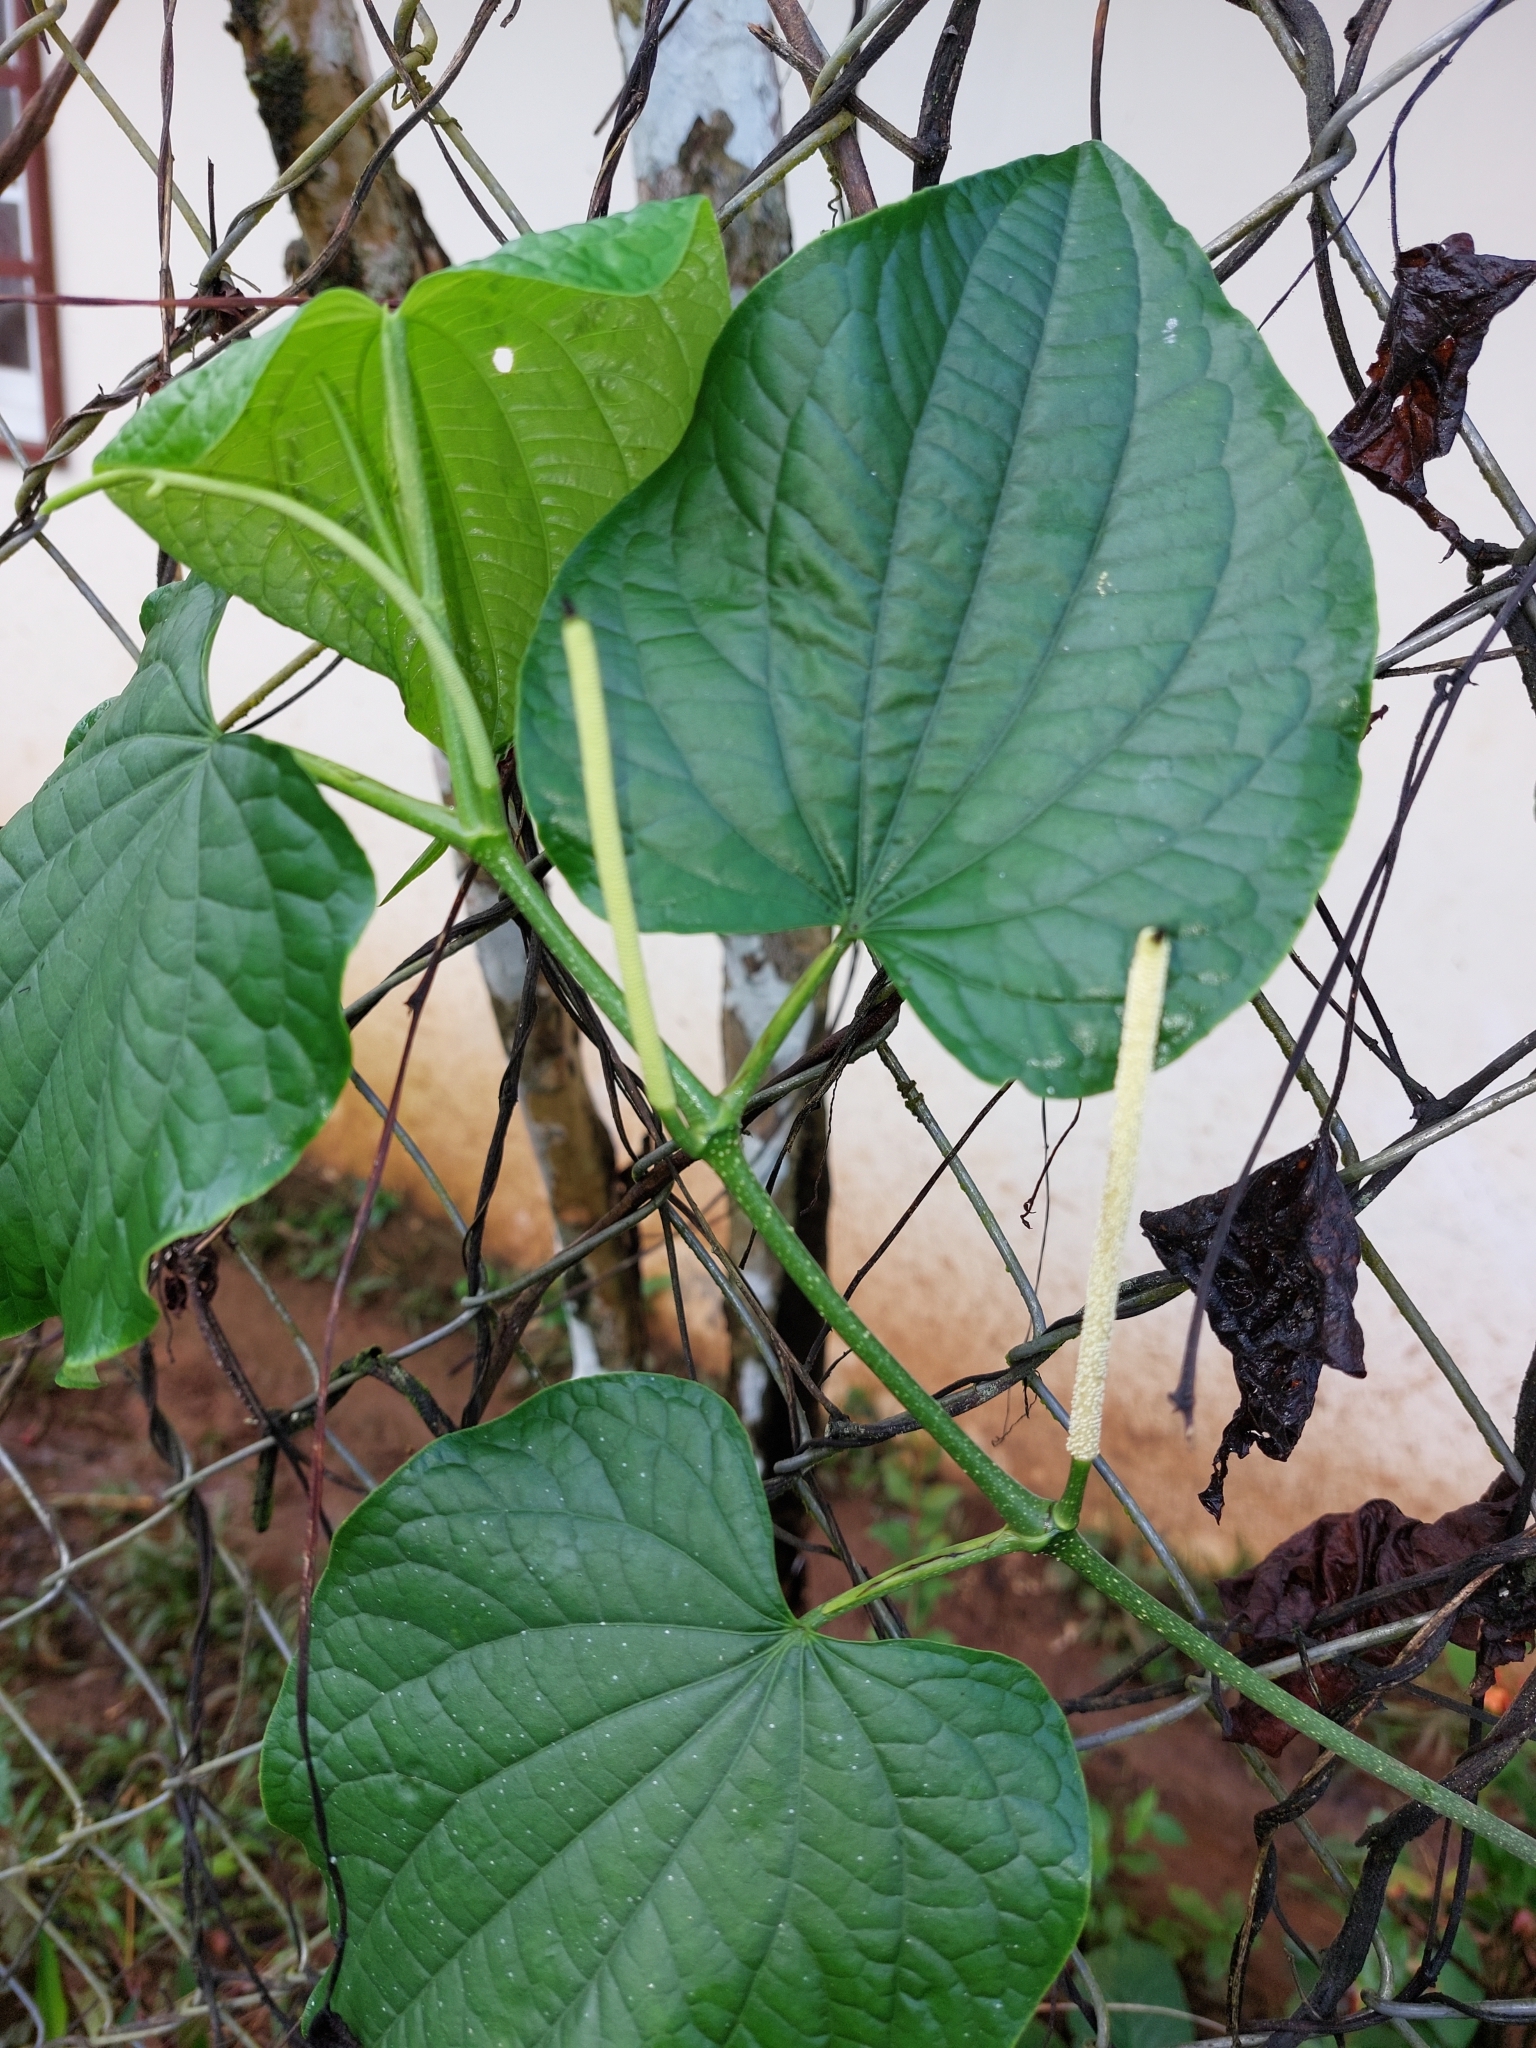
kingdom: Plantae
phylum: Tracheophyta
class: Magnoliopsida
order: Piperales
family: Piperaceae
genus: Piper
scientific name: Piper marginatum
